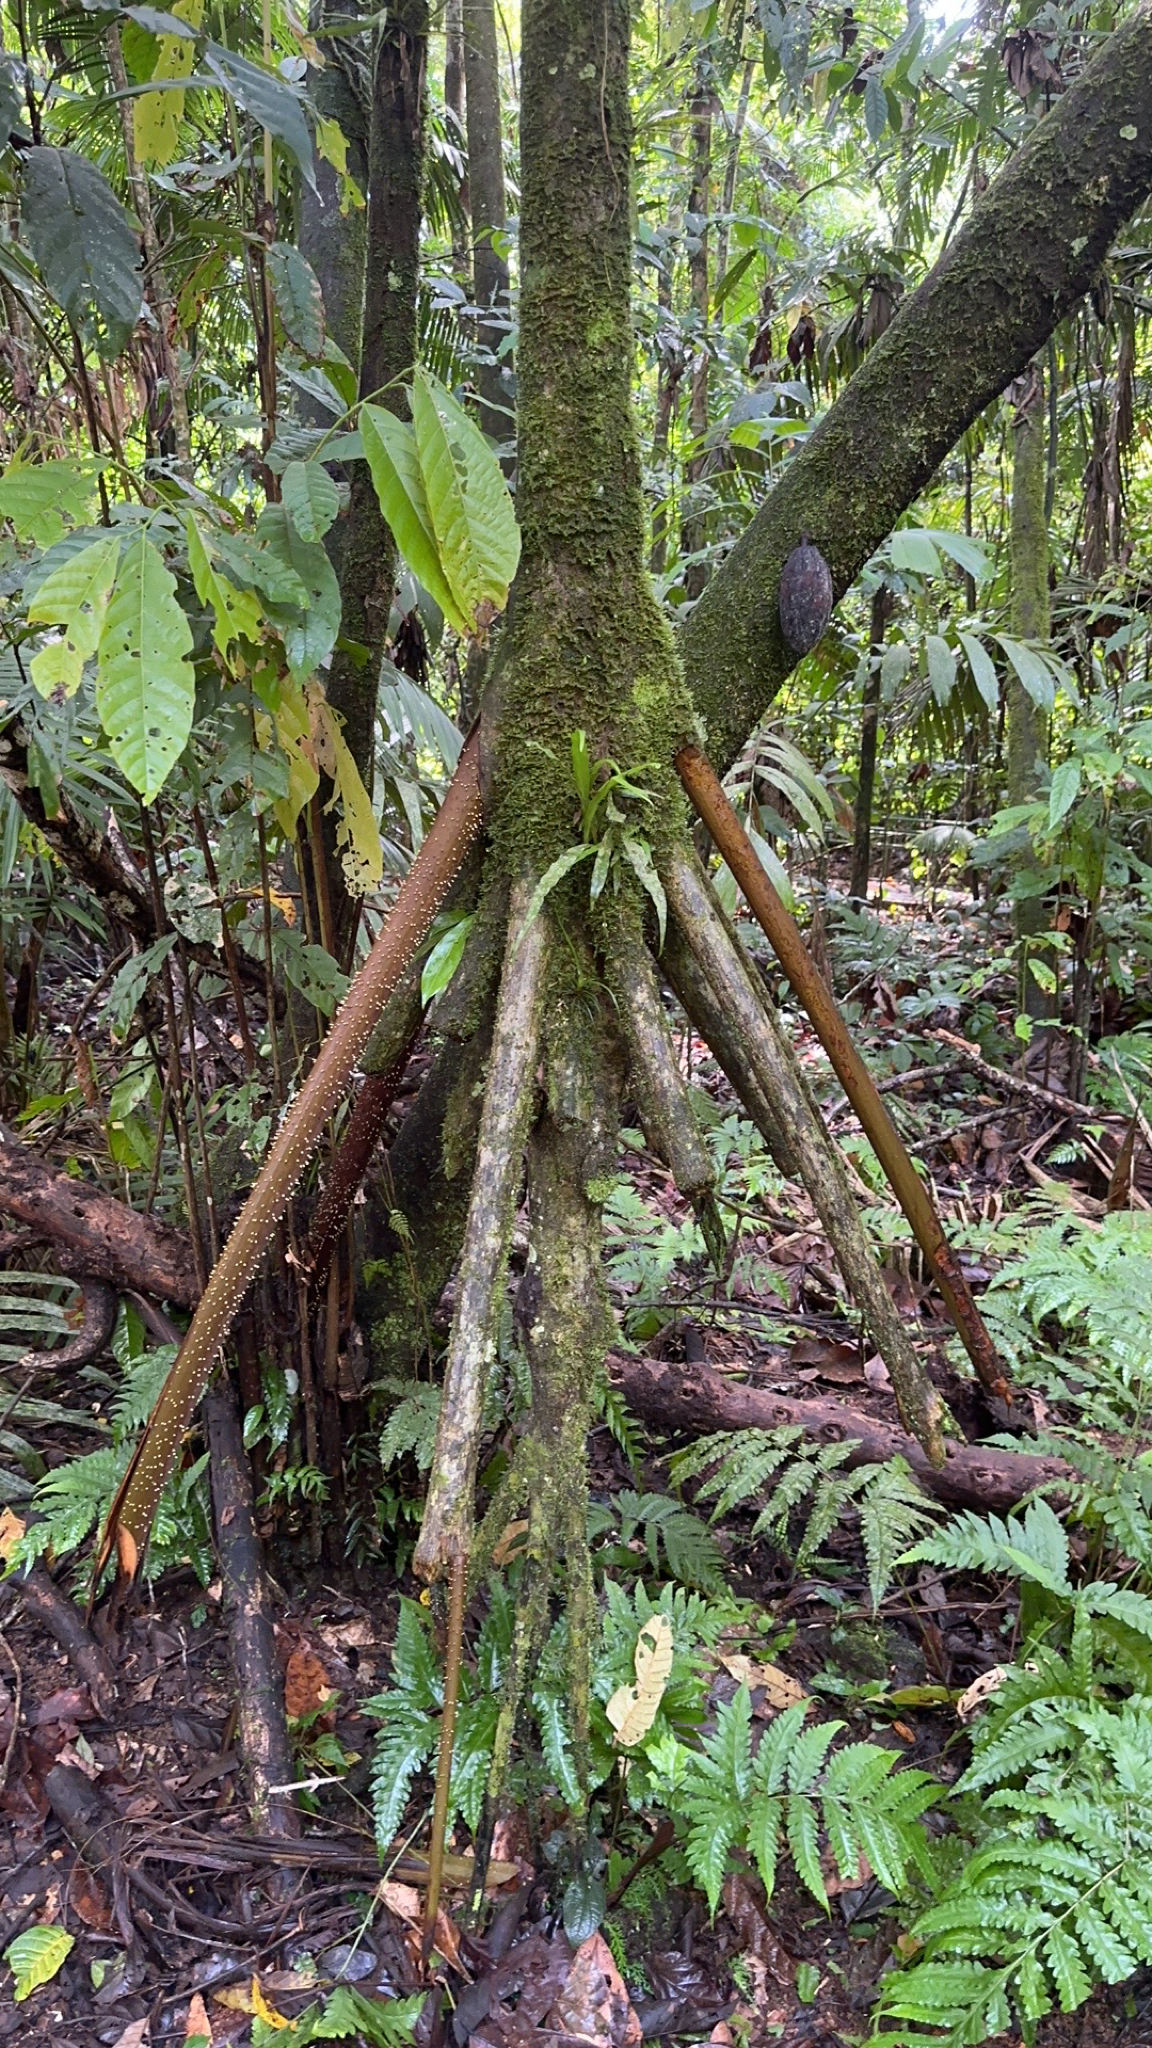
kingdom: Plantae
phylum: Tracheophyta
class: Liliopsida
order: Arecales
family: Arecaceae
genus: Socratea
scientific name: Socratea exorrhiza
